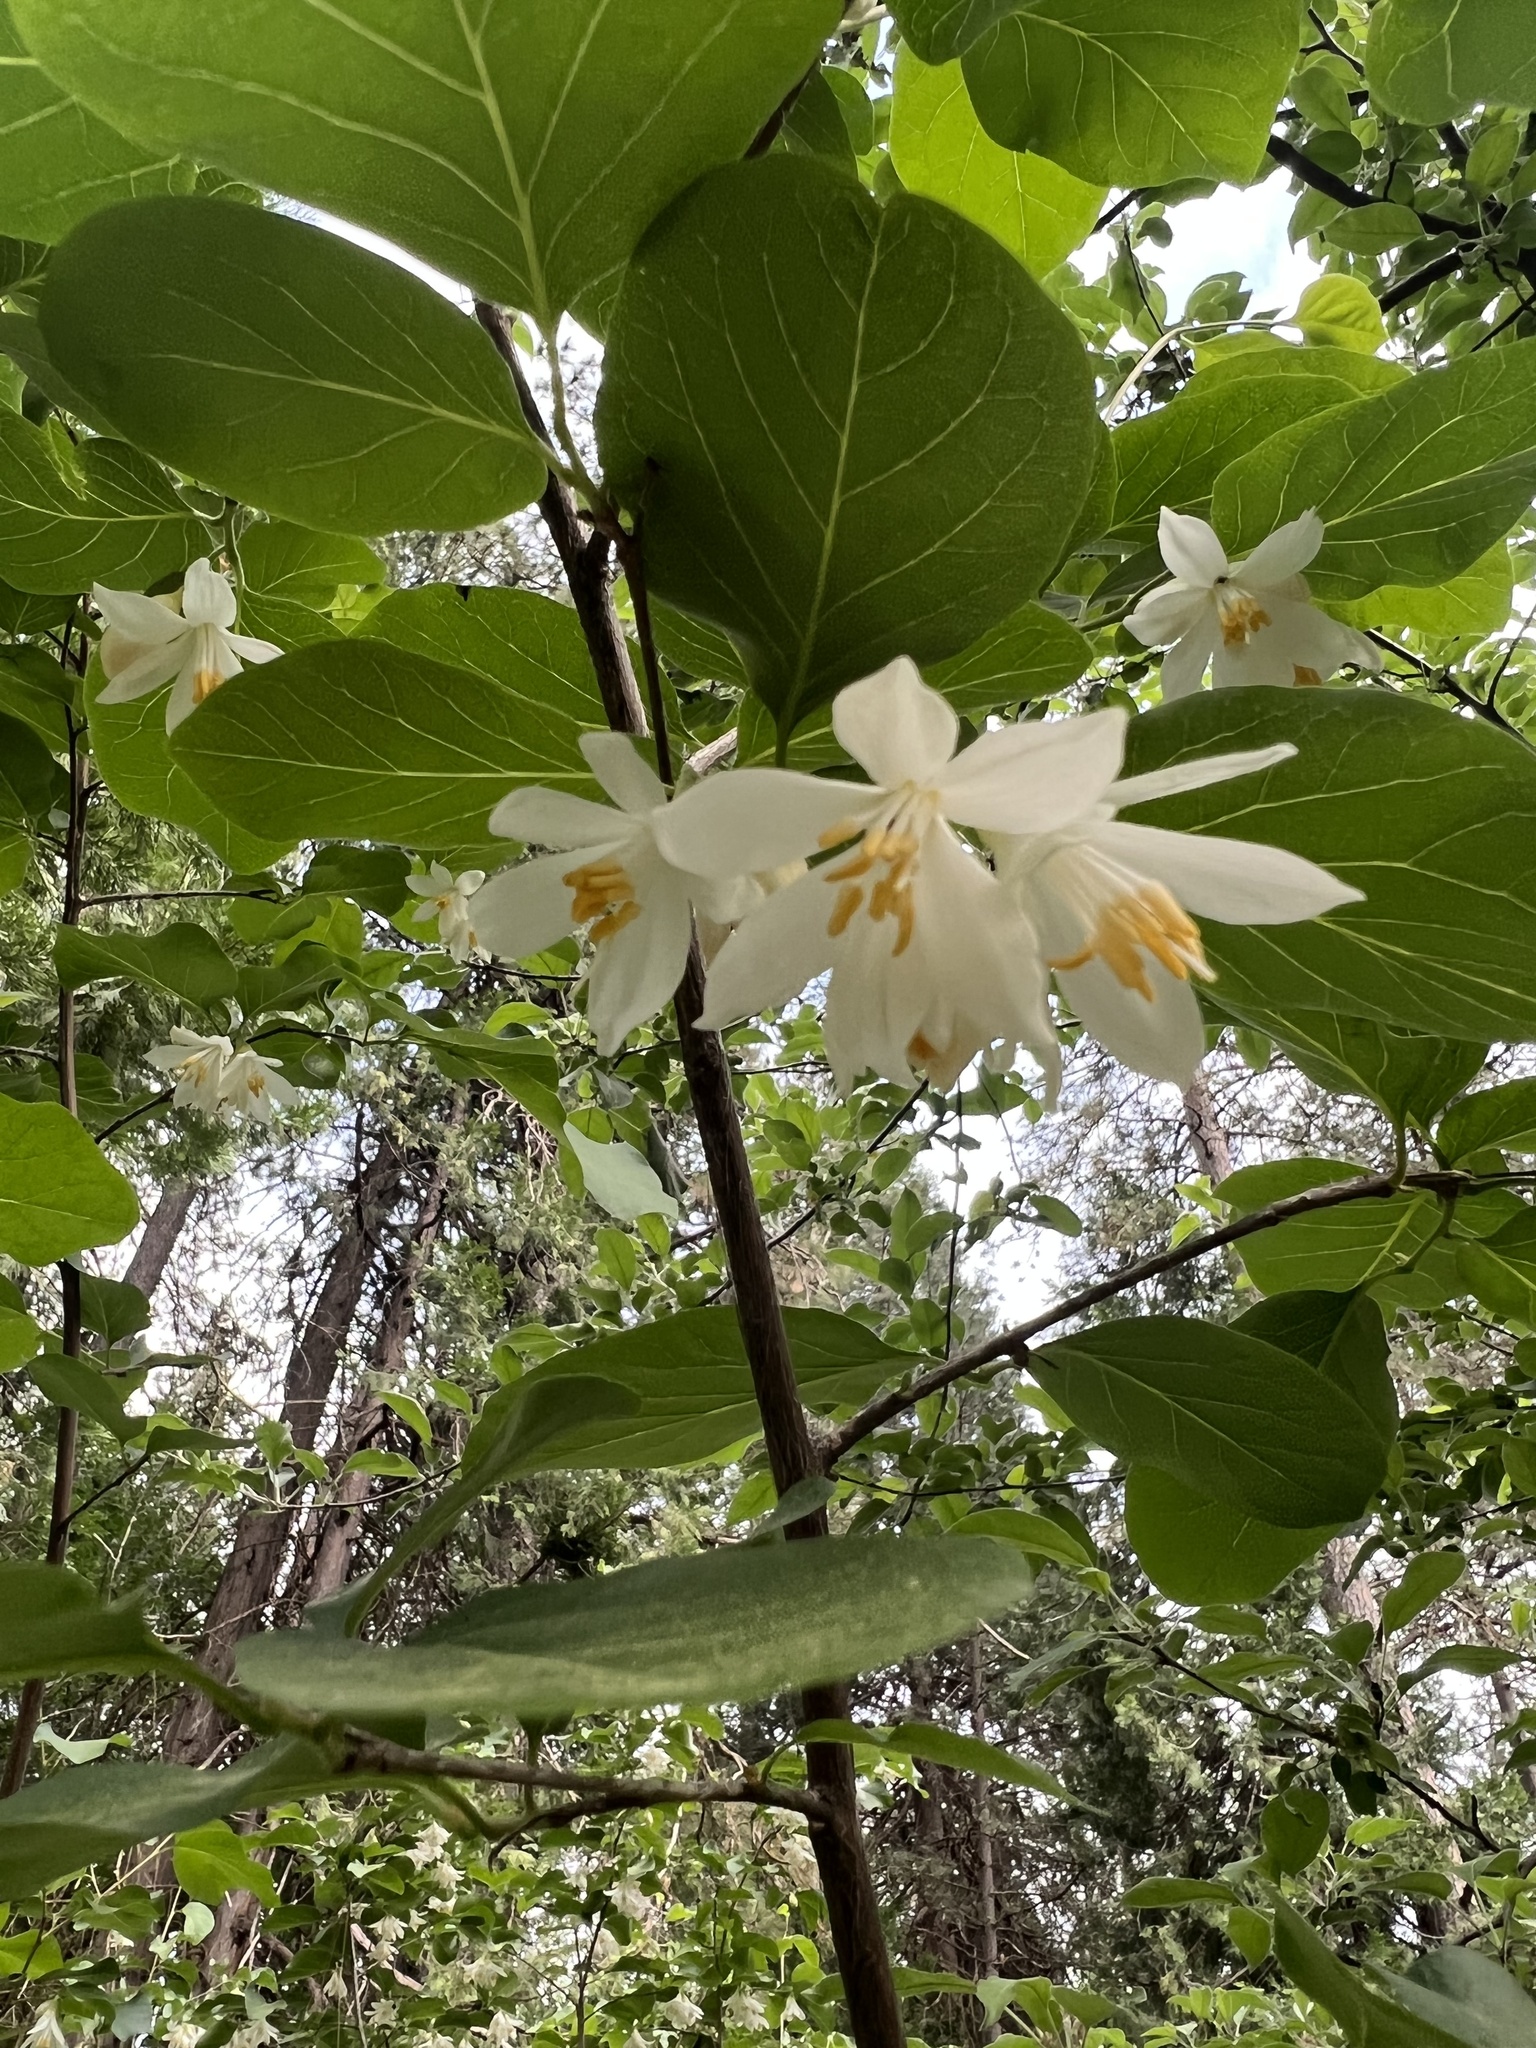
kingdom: Plantae
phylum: Tracheophyta
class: Magnoliopsida
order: Ericales
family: Styracaceae
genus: Styrax
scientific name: Styrax redivivus
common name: California styrax
